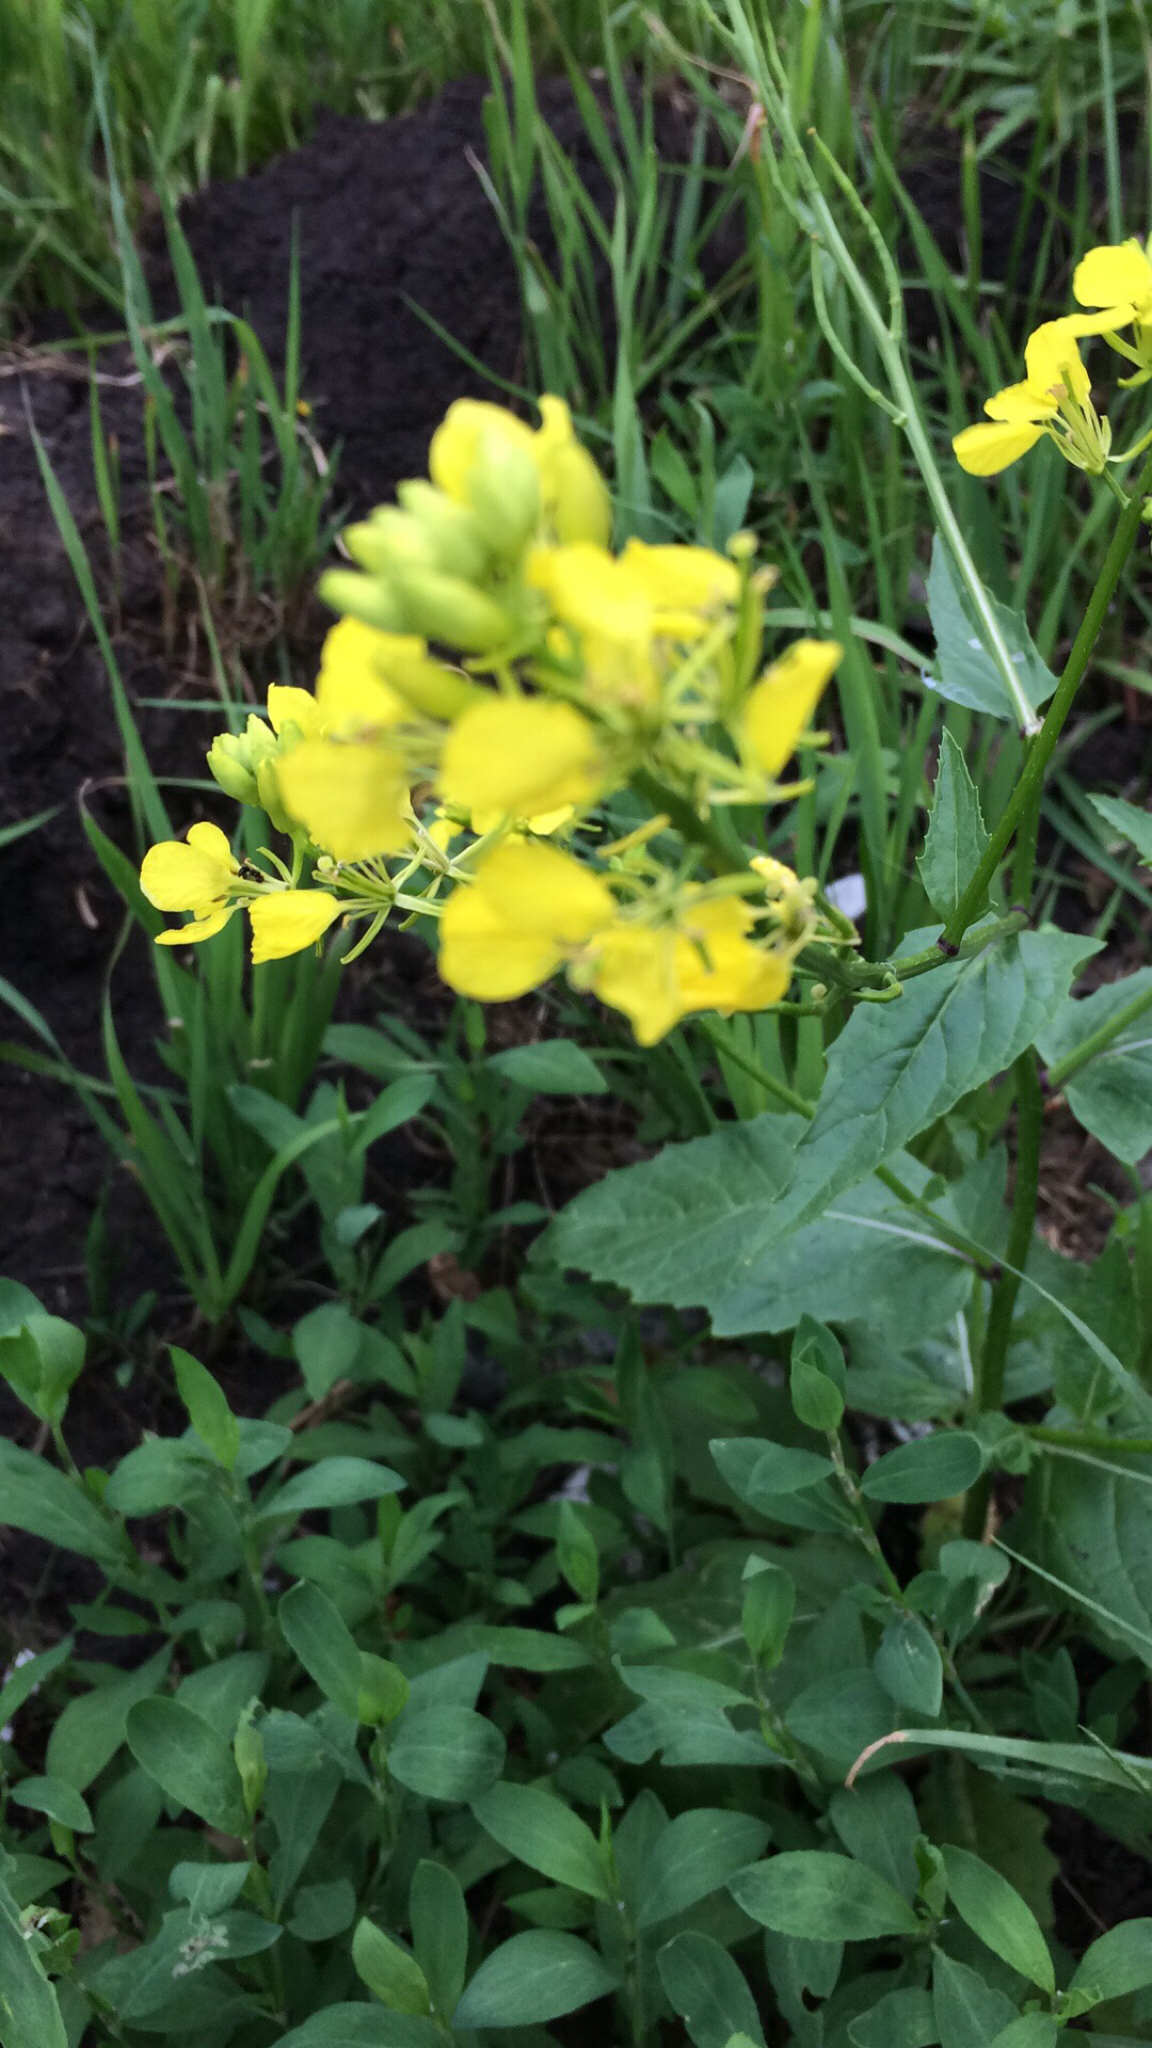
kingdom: Plantae
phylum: Tracheophyta
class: Magnoliopsida
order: Brassicales
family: Brassicaceae
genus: Sinapis
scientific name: Sinapis arvensis
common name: Charlock
